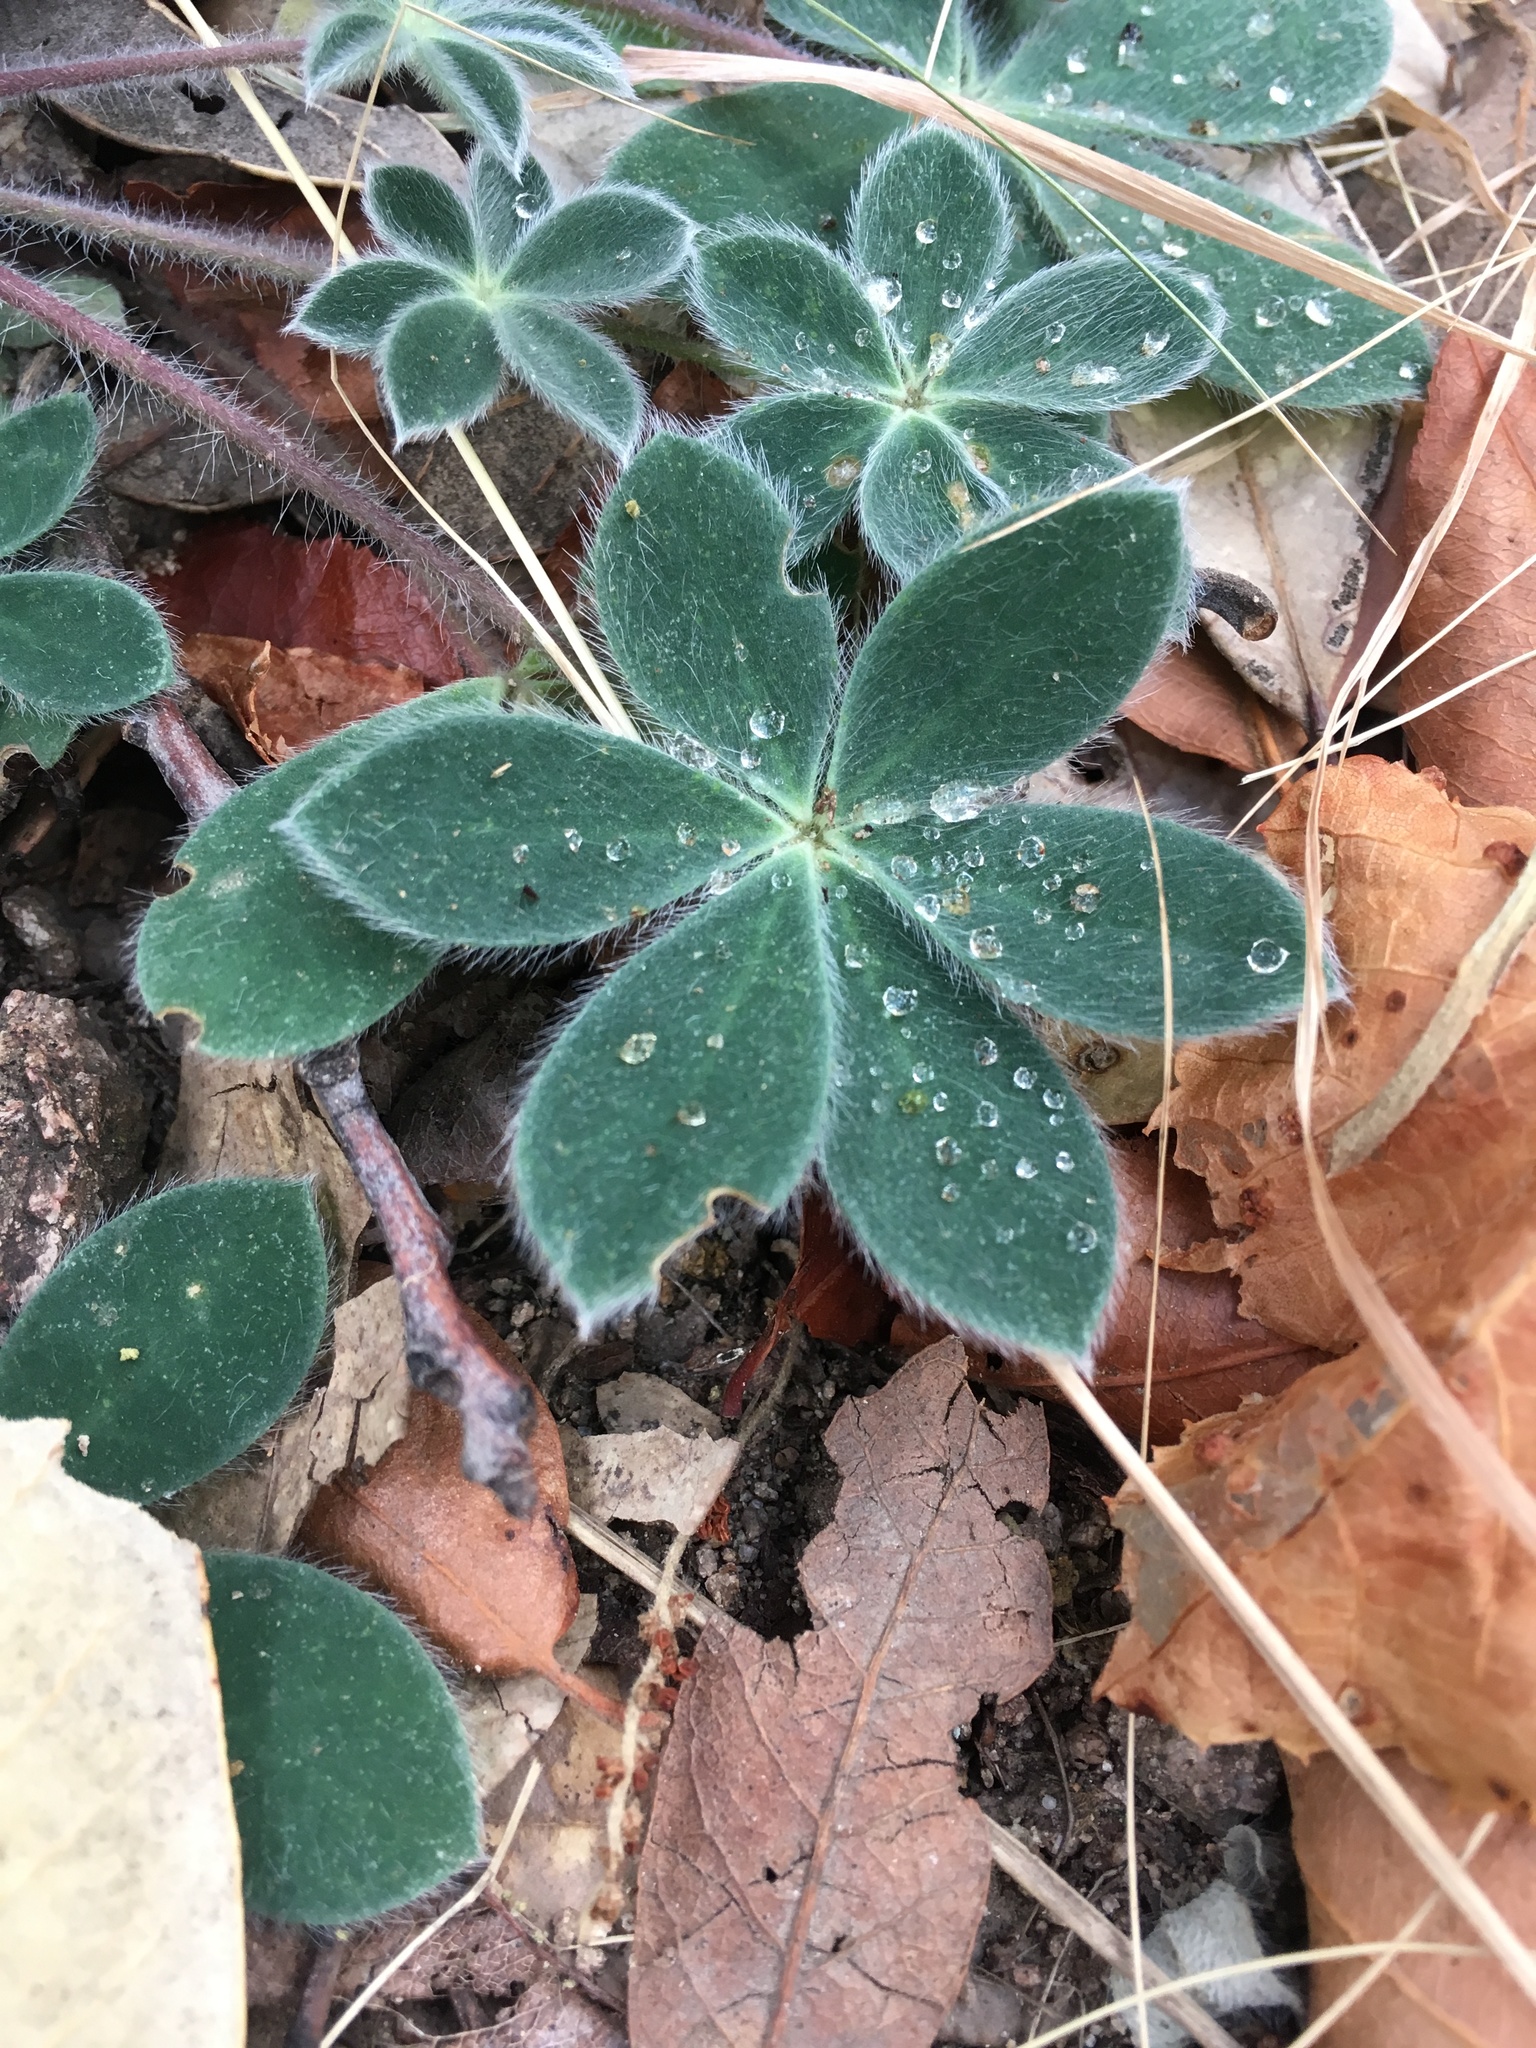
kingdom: Plantae
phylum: Tracheophyta
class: Magnoliopsida
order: Fabales
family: Fabaceae
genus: Lupinus
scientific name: Lupinus huachucanus
